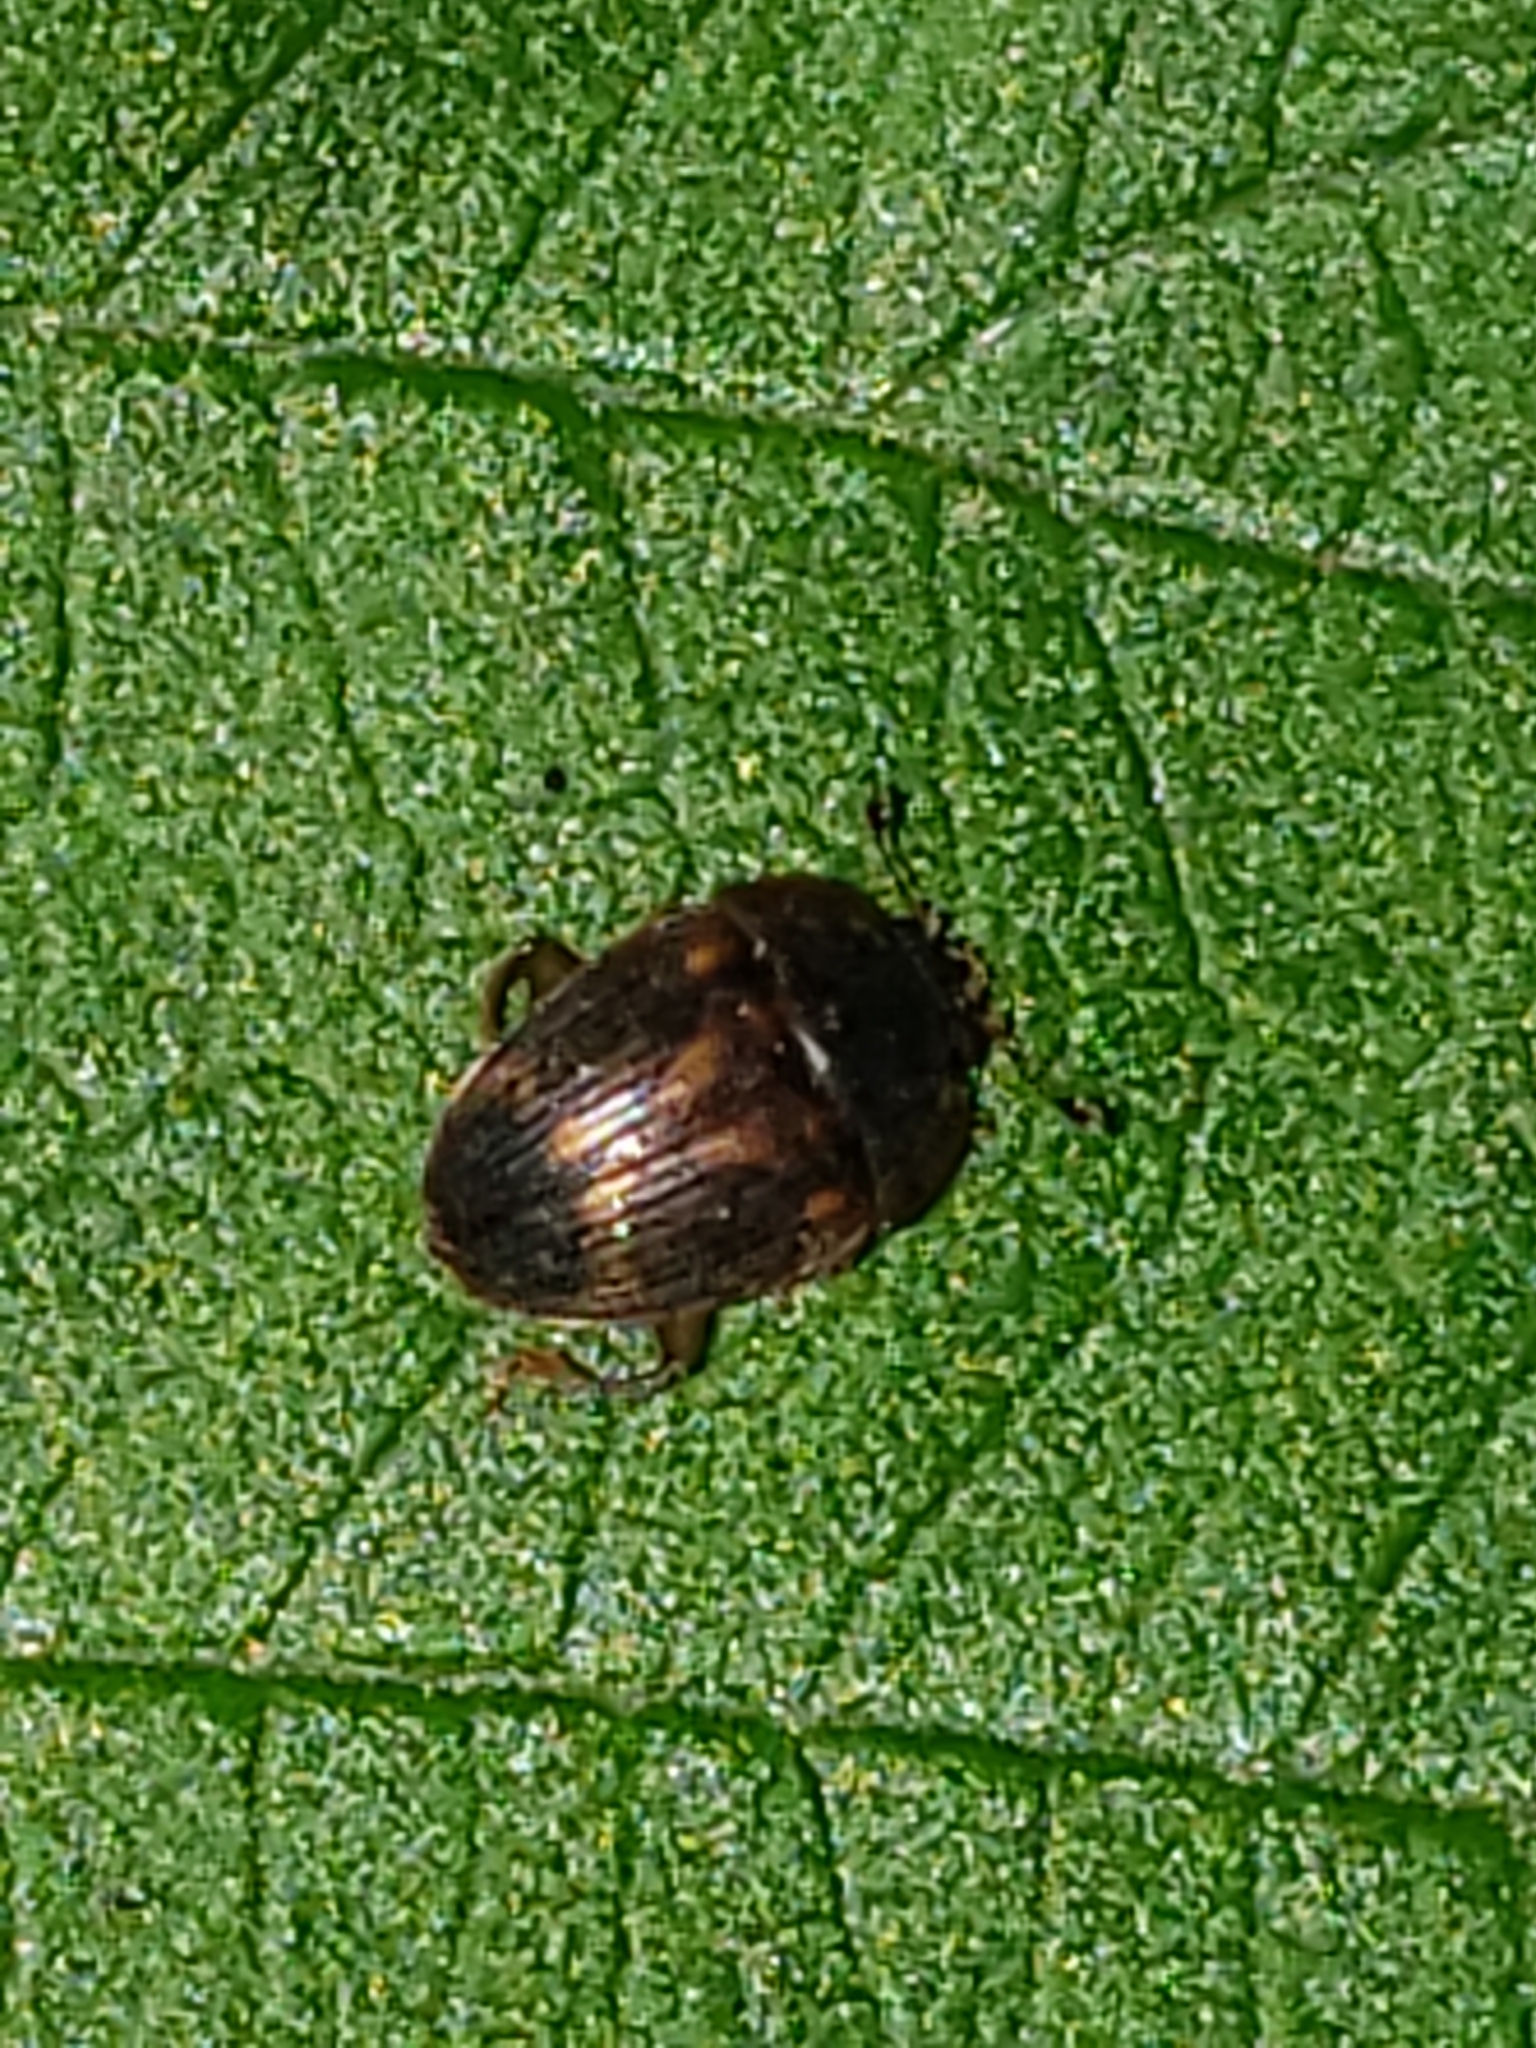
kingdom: Animalia
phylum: Arthropoda
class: Insecta
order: Coleoptera
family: Nitidulidae
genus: Stelidota
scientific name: Stelidota geminata
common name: Strawberry sap beetle
